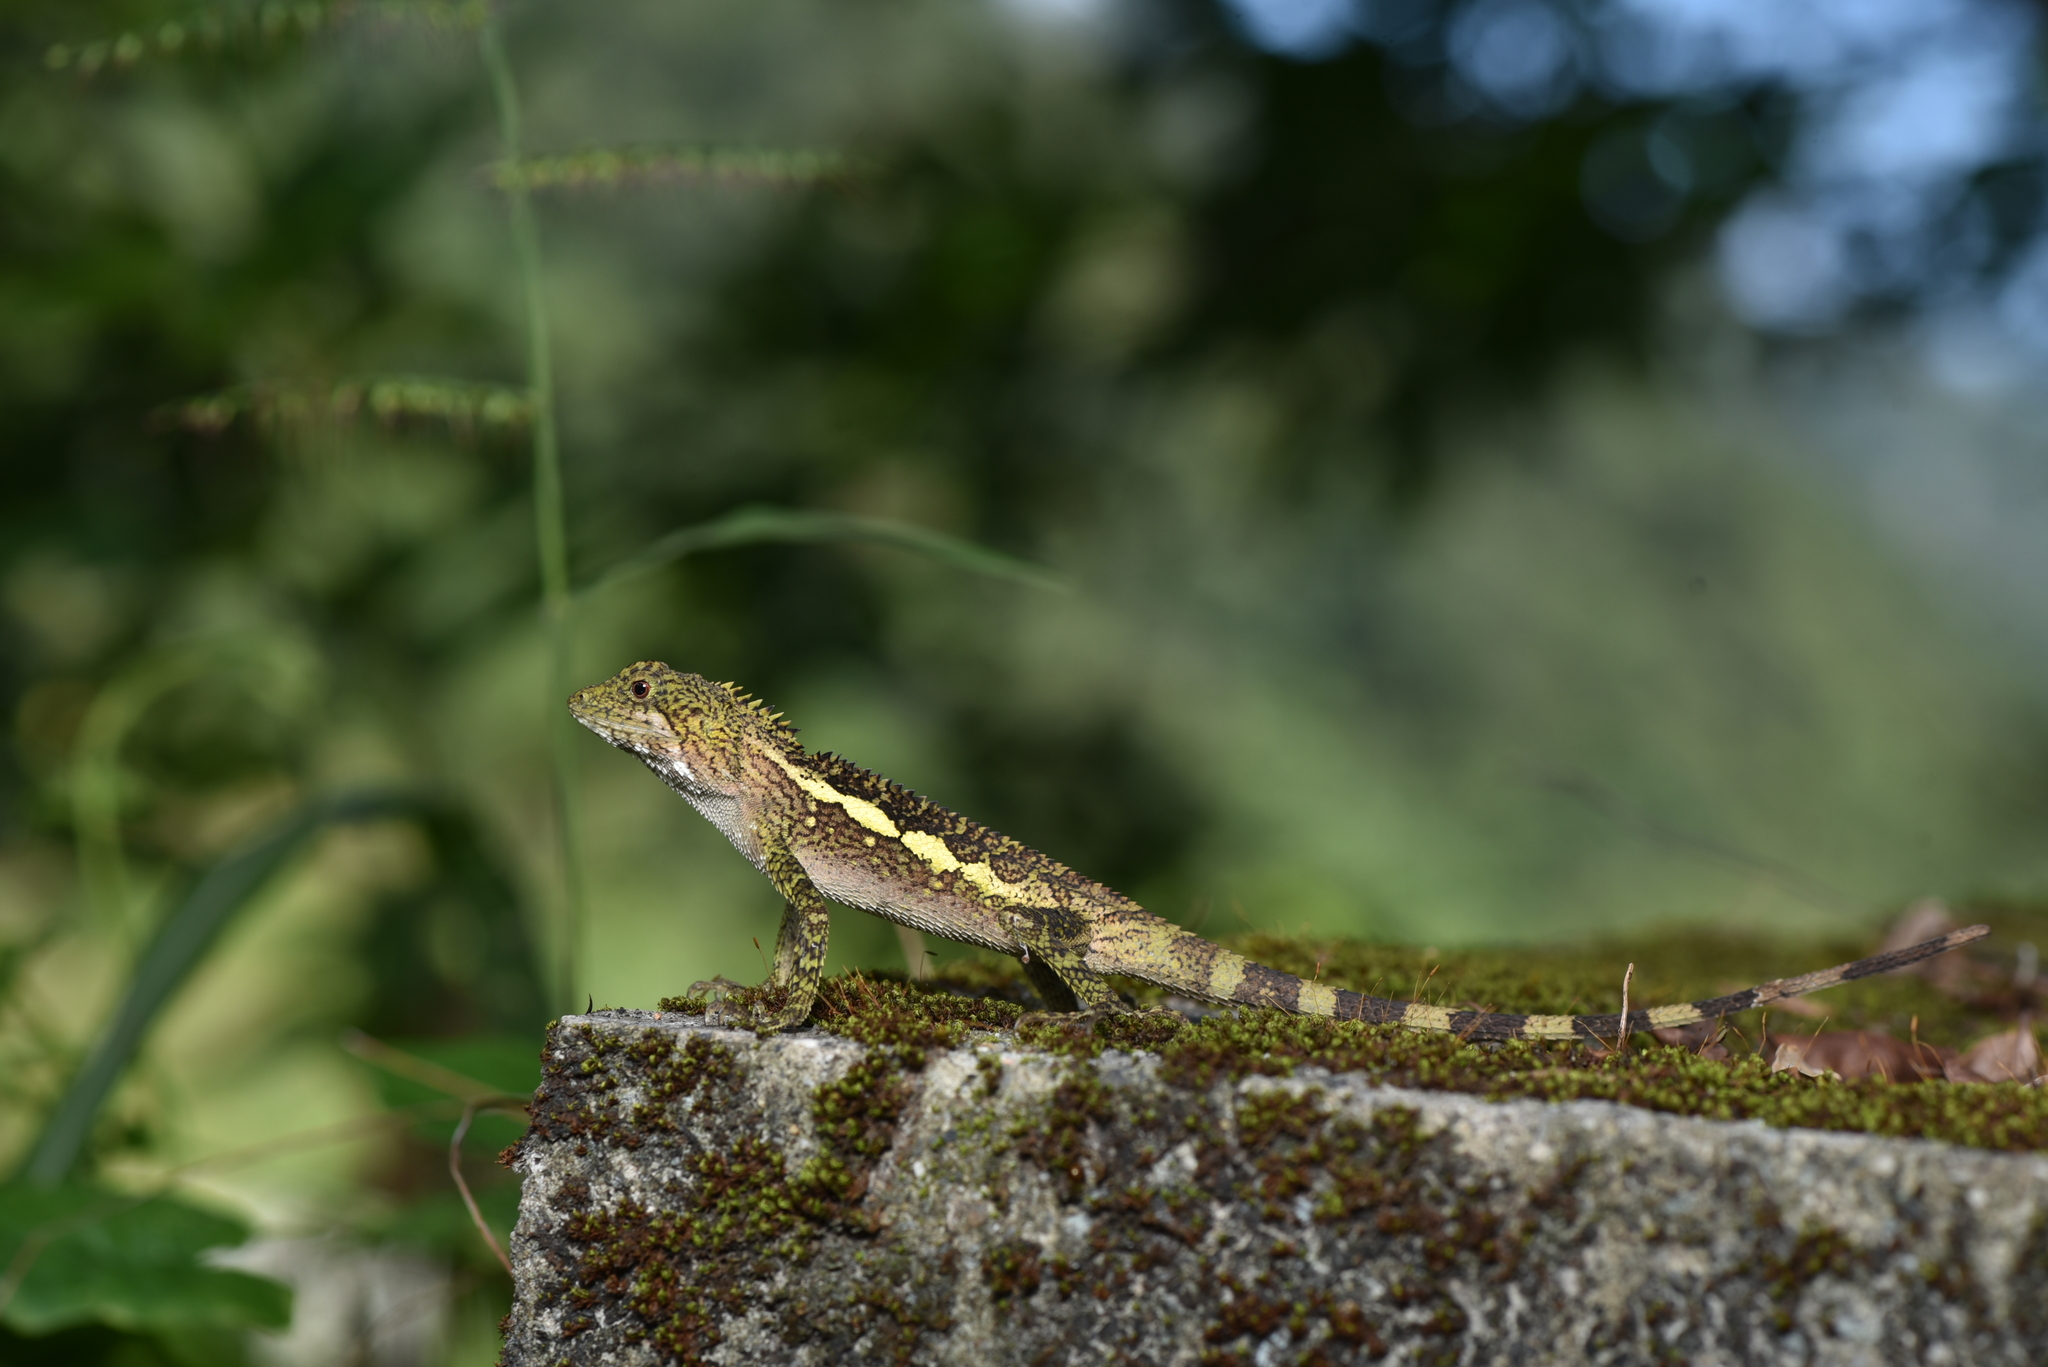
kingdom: Animalia
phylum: Chordata
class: Squamata
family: Agamidae
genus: Diploderma
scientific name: Diploderma swinhonis
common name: Taiwan japalure
